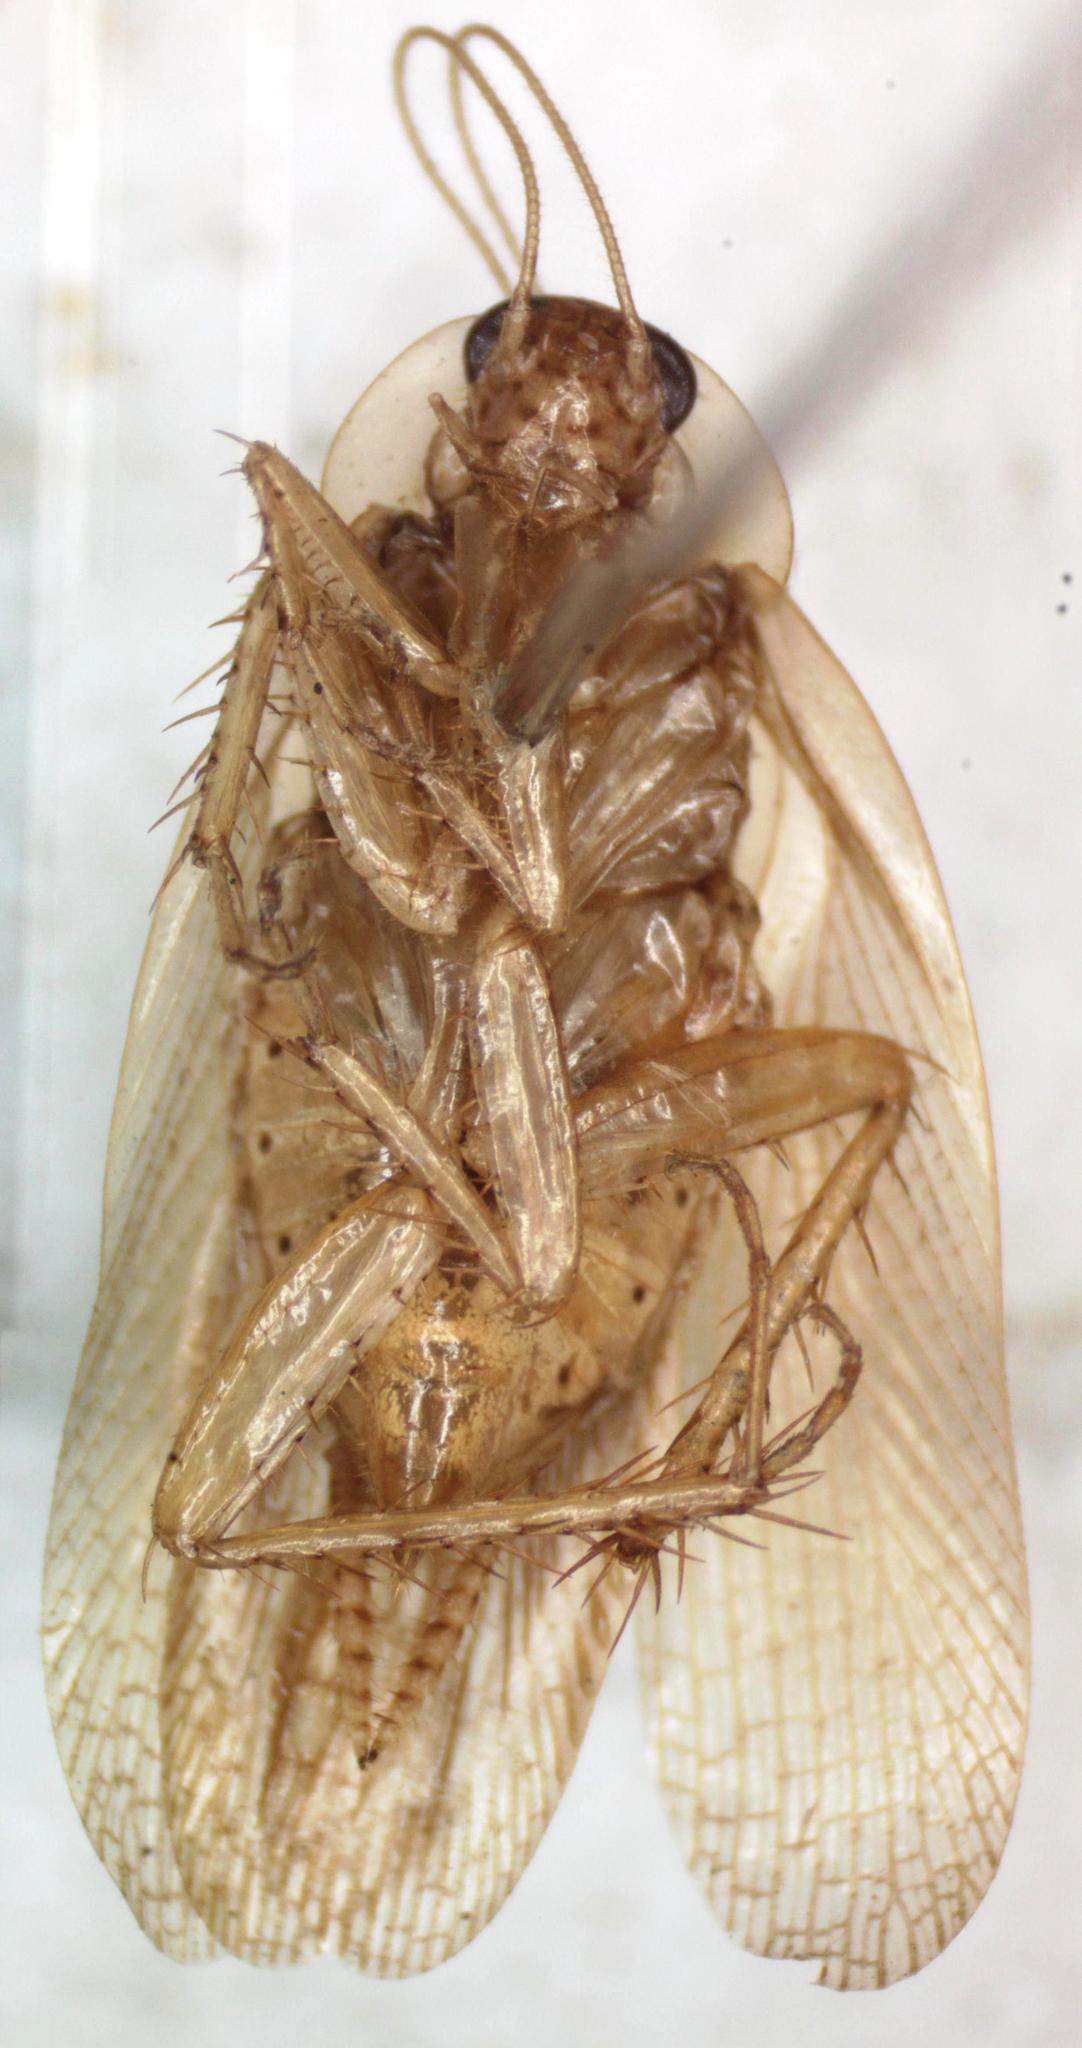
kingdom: Animalia
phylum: Arthropoda
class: Insecta
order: Blattodea
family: Ectobiidae
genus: Imblattella
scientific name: Imblattella chagrensis
